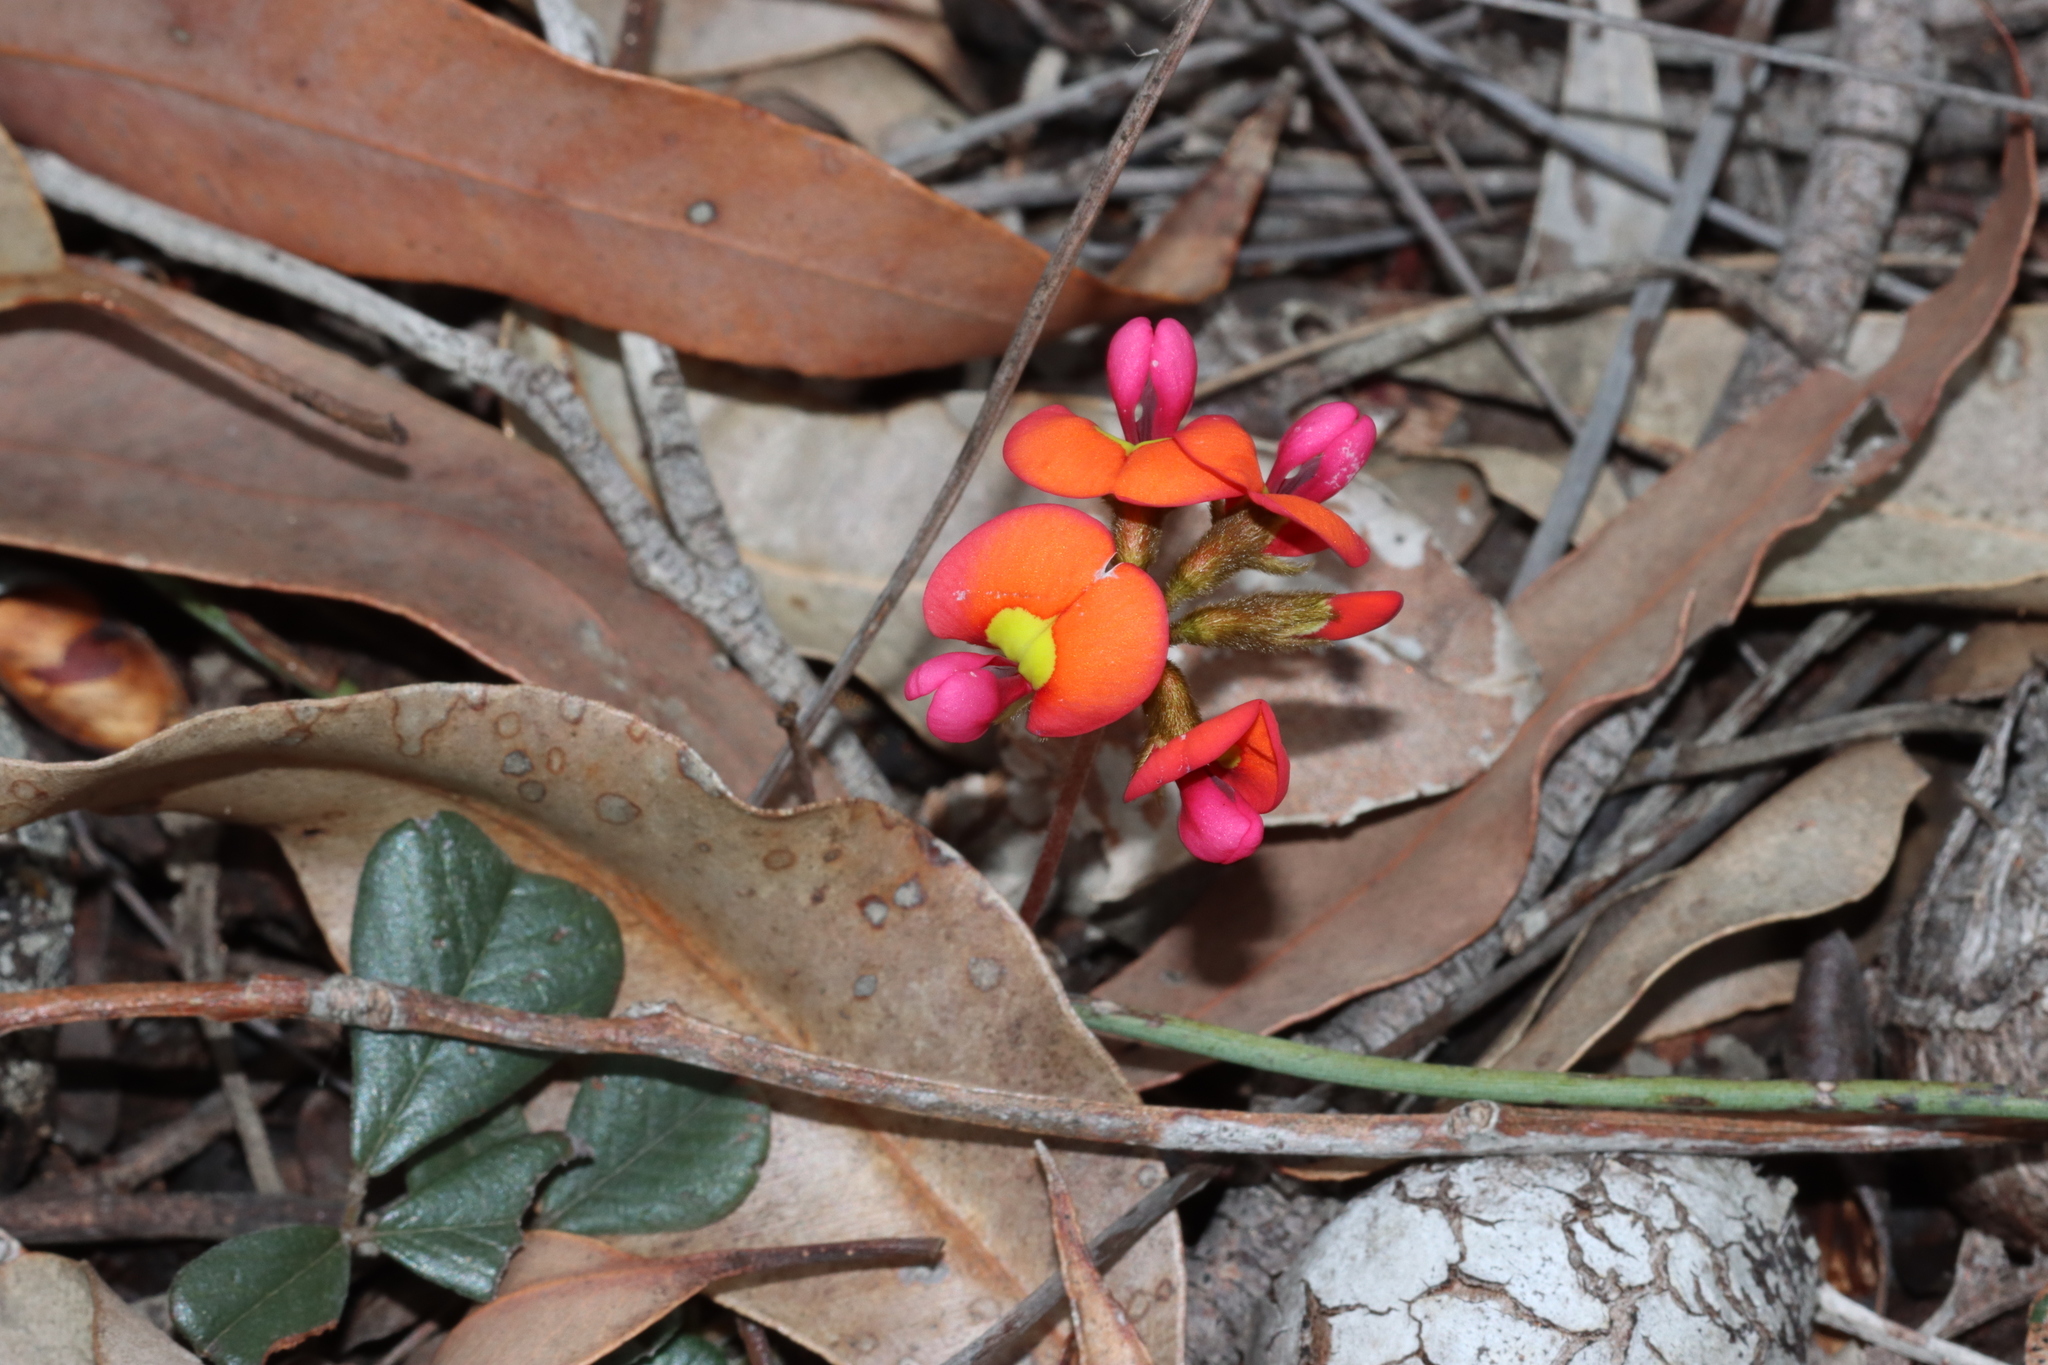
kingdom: Plantae
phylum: Tracheophyta
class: Magnoliopsida
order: Fabales
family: Fabaceae
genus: Kennedia
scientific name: Kennedia coccinea
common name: Coralvine
